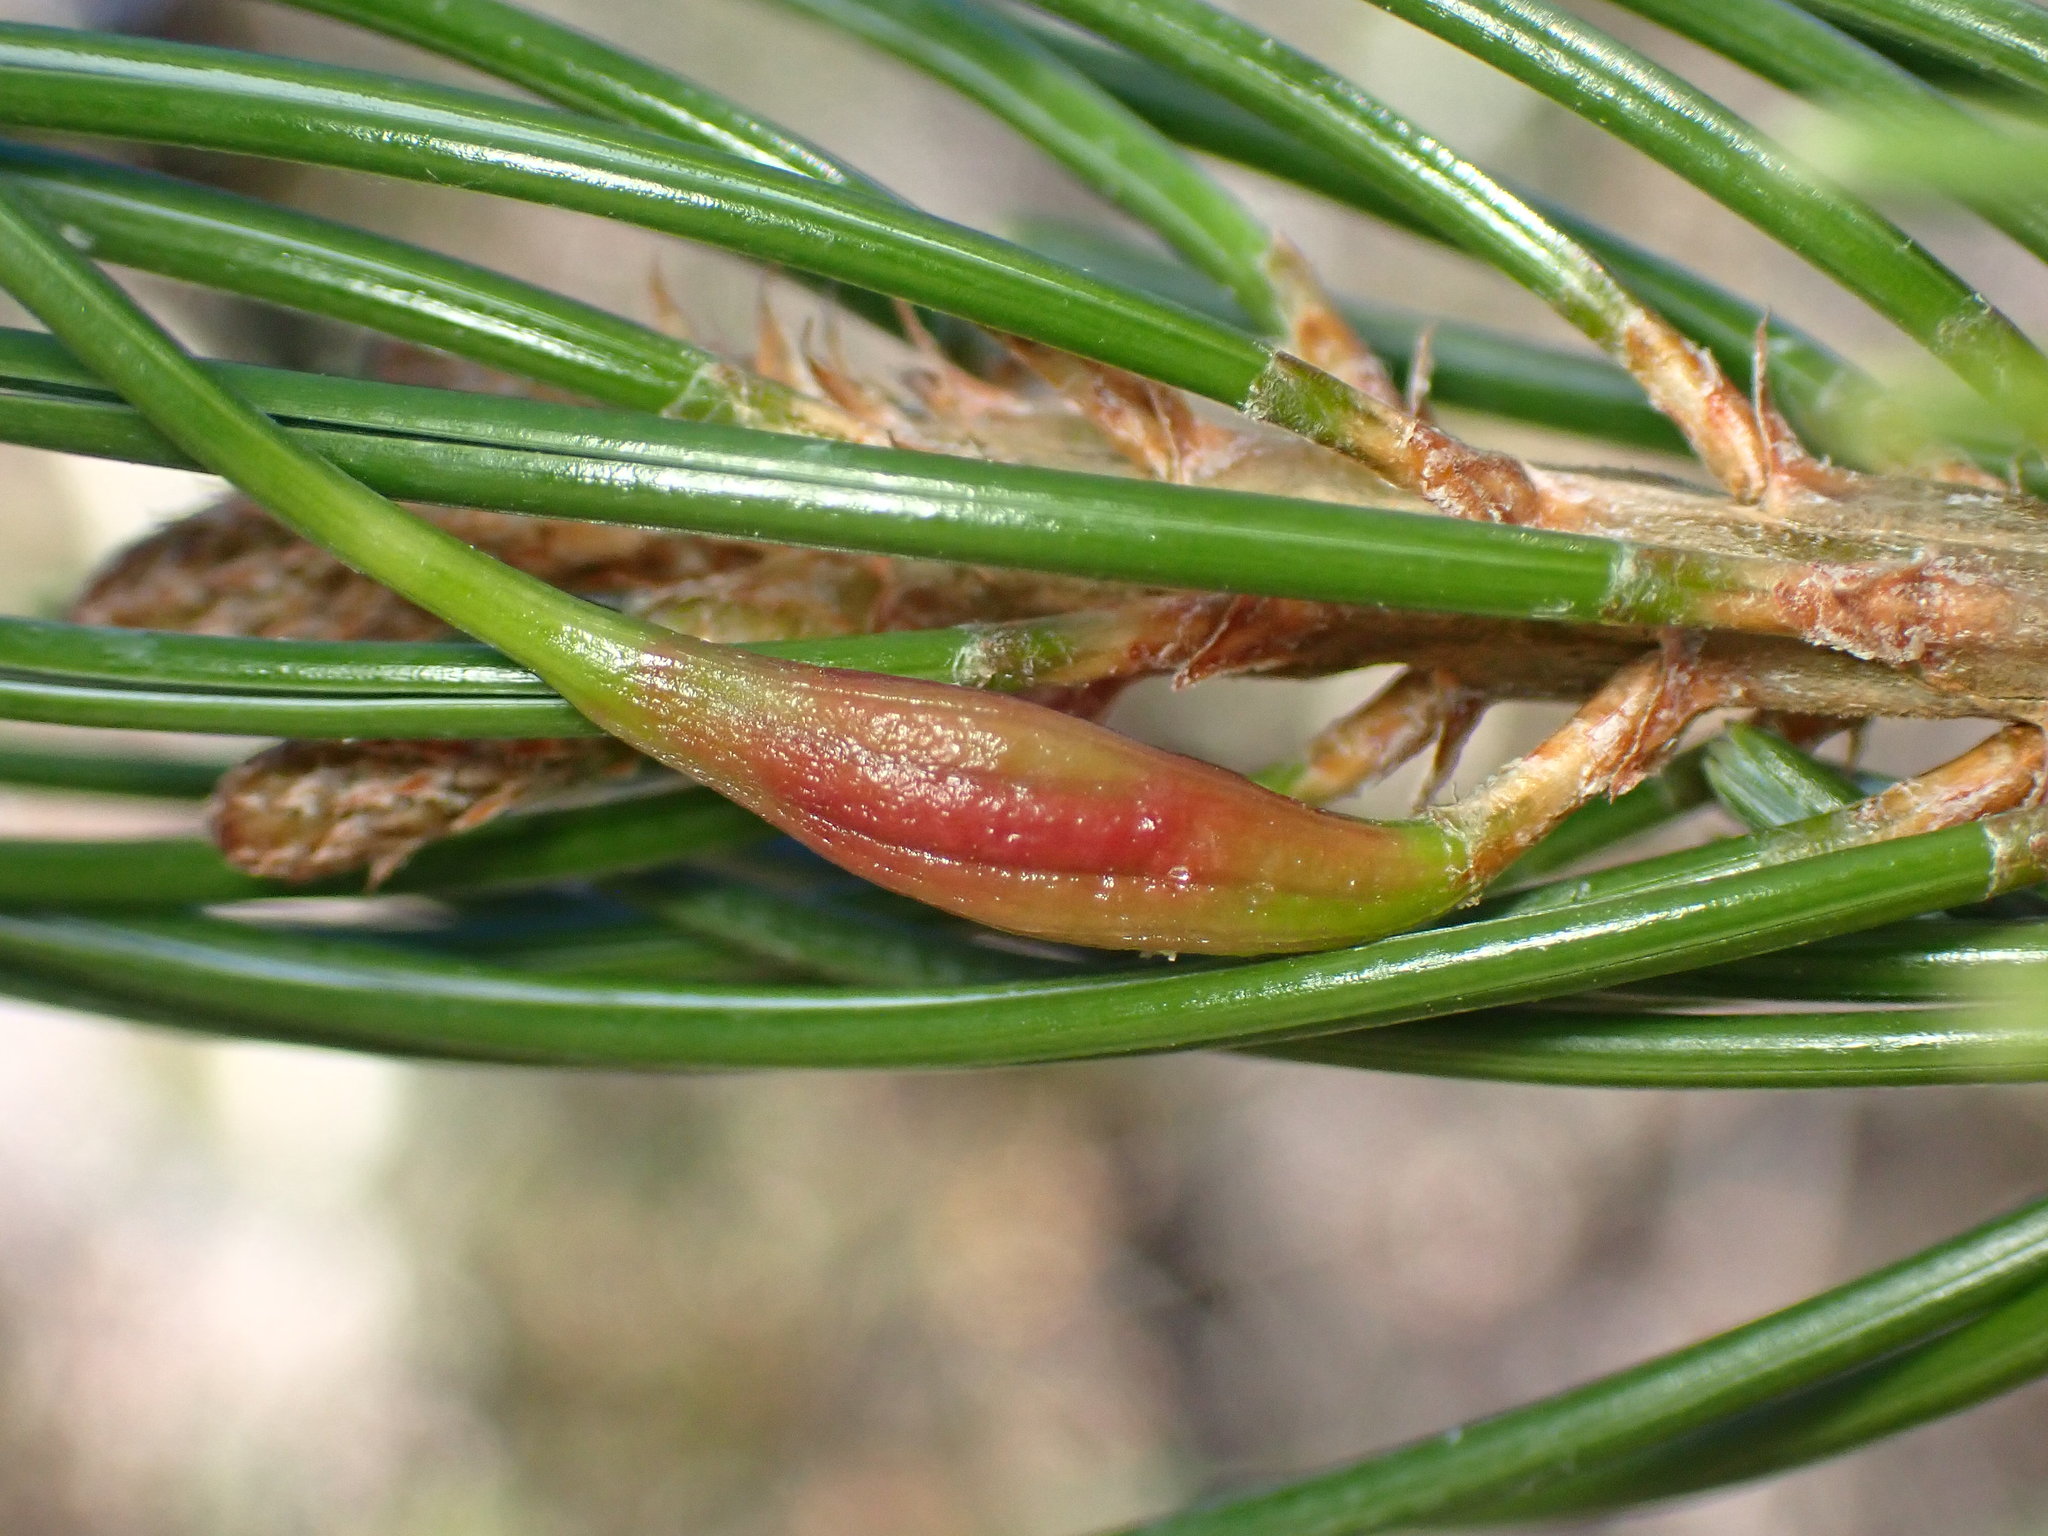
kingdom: Animalia
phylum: Arthropoda
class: Insecta
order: Diptera
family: Cecidomyiidae
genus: Pinyonia
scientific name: Pinyonia edulicola
